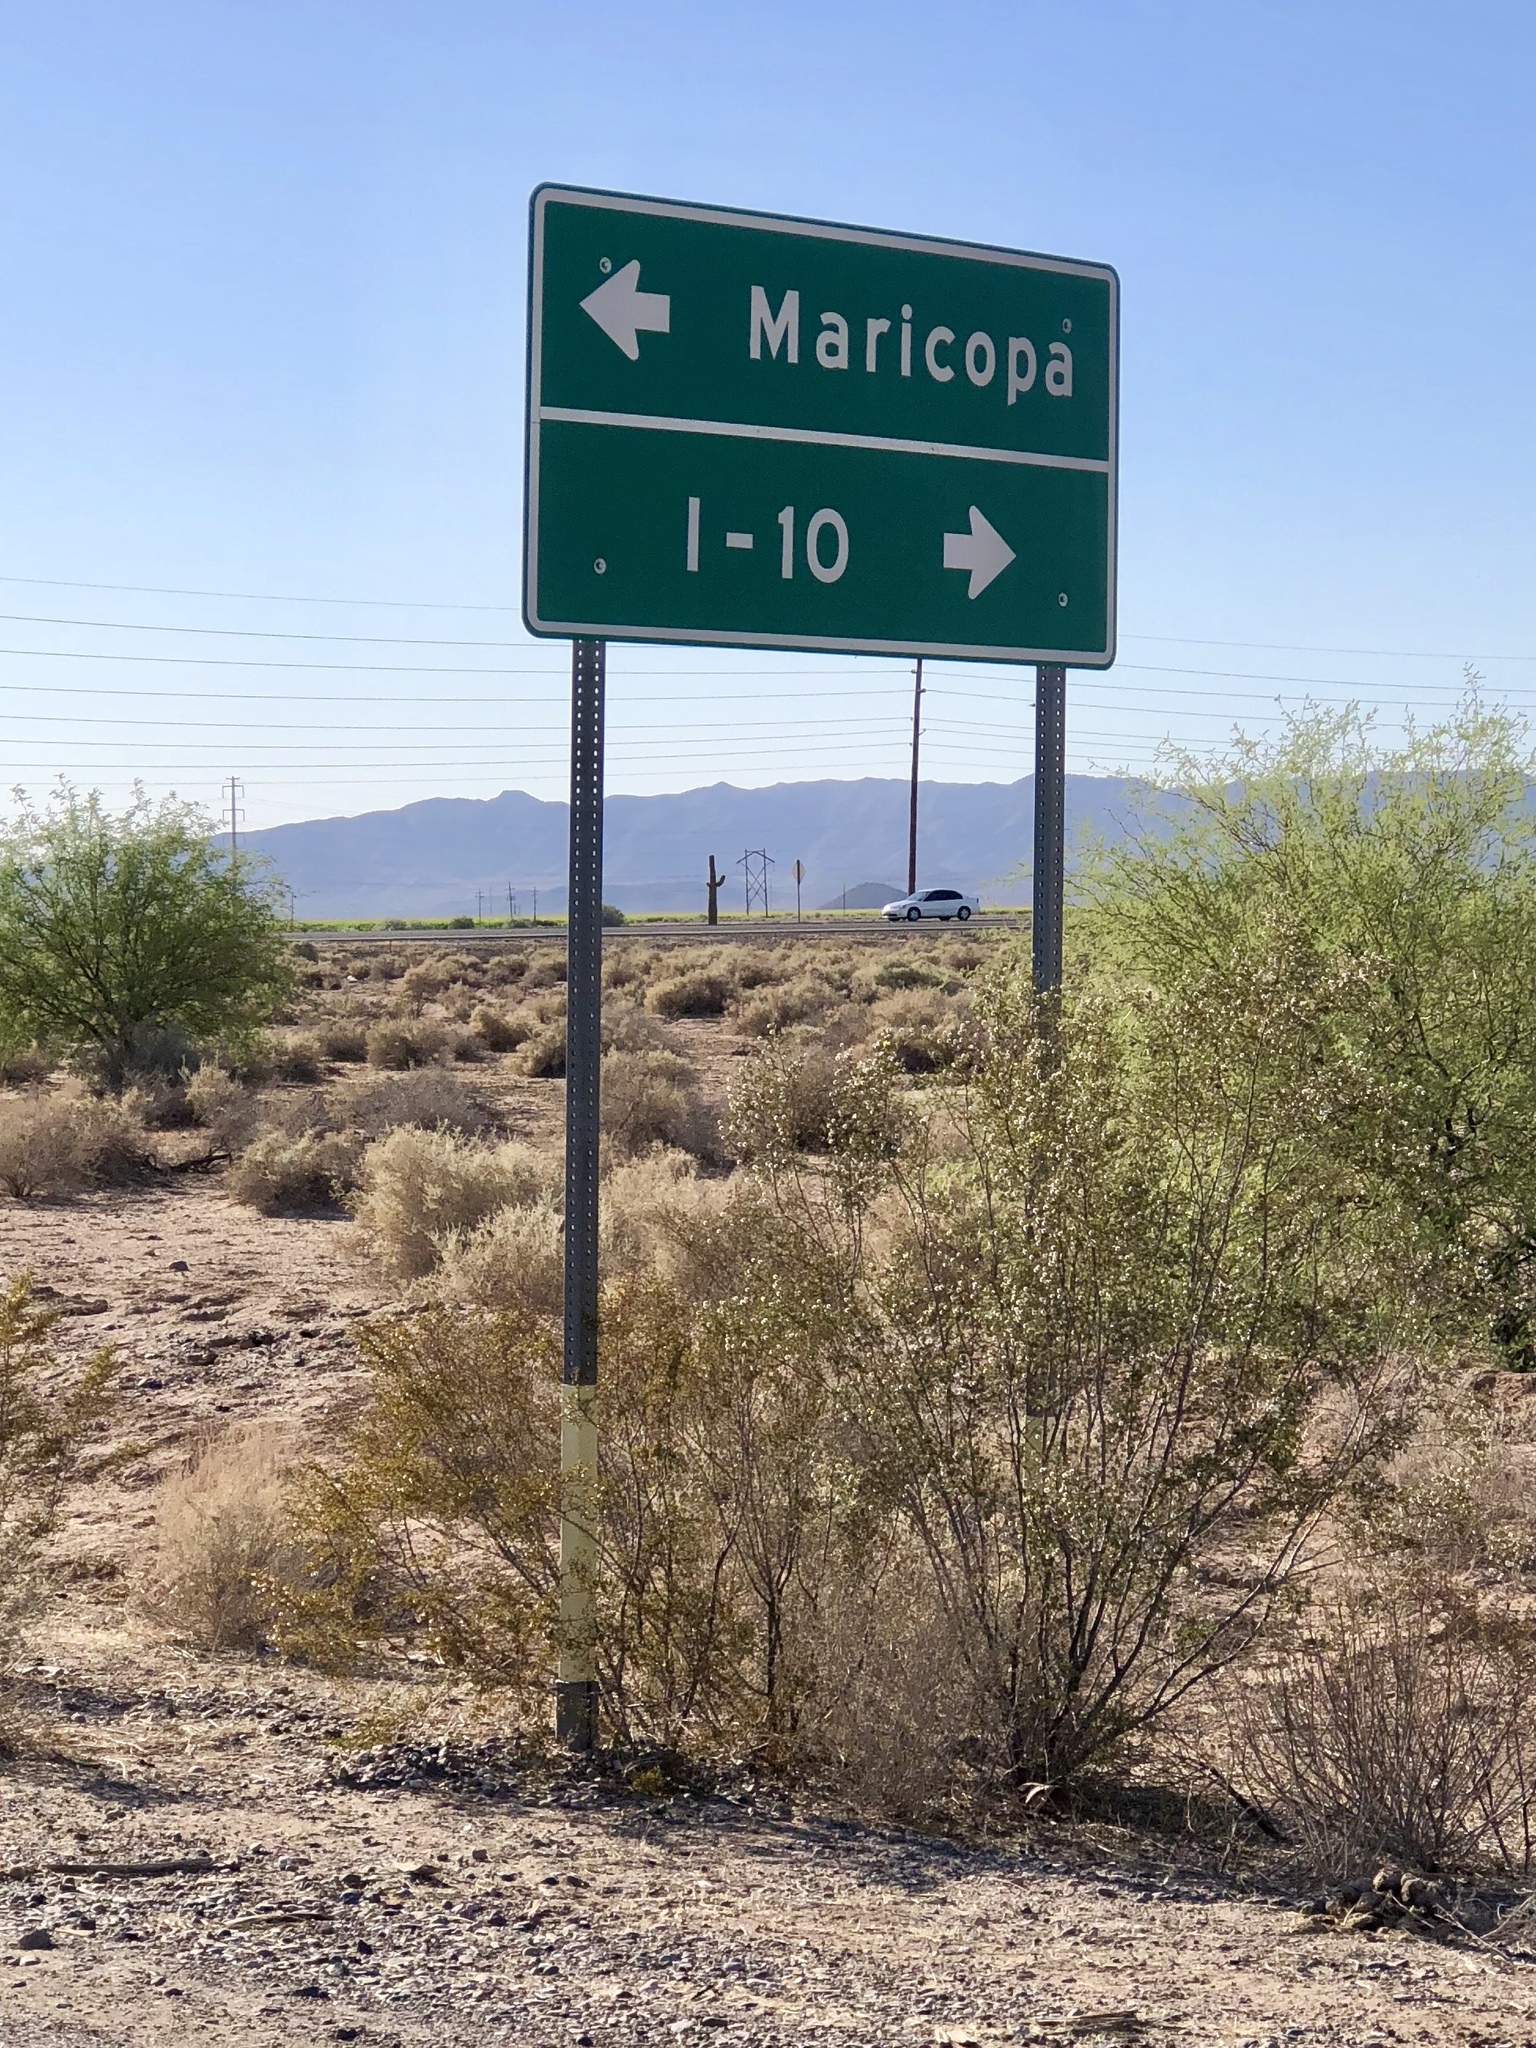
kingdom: Plantae
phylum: Tracheophyta
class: Magnoliopsida
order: Zygophyllales
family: Zygophyllaceae
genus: Larrea
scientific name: Larrea tridentata
